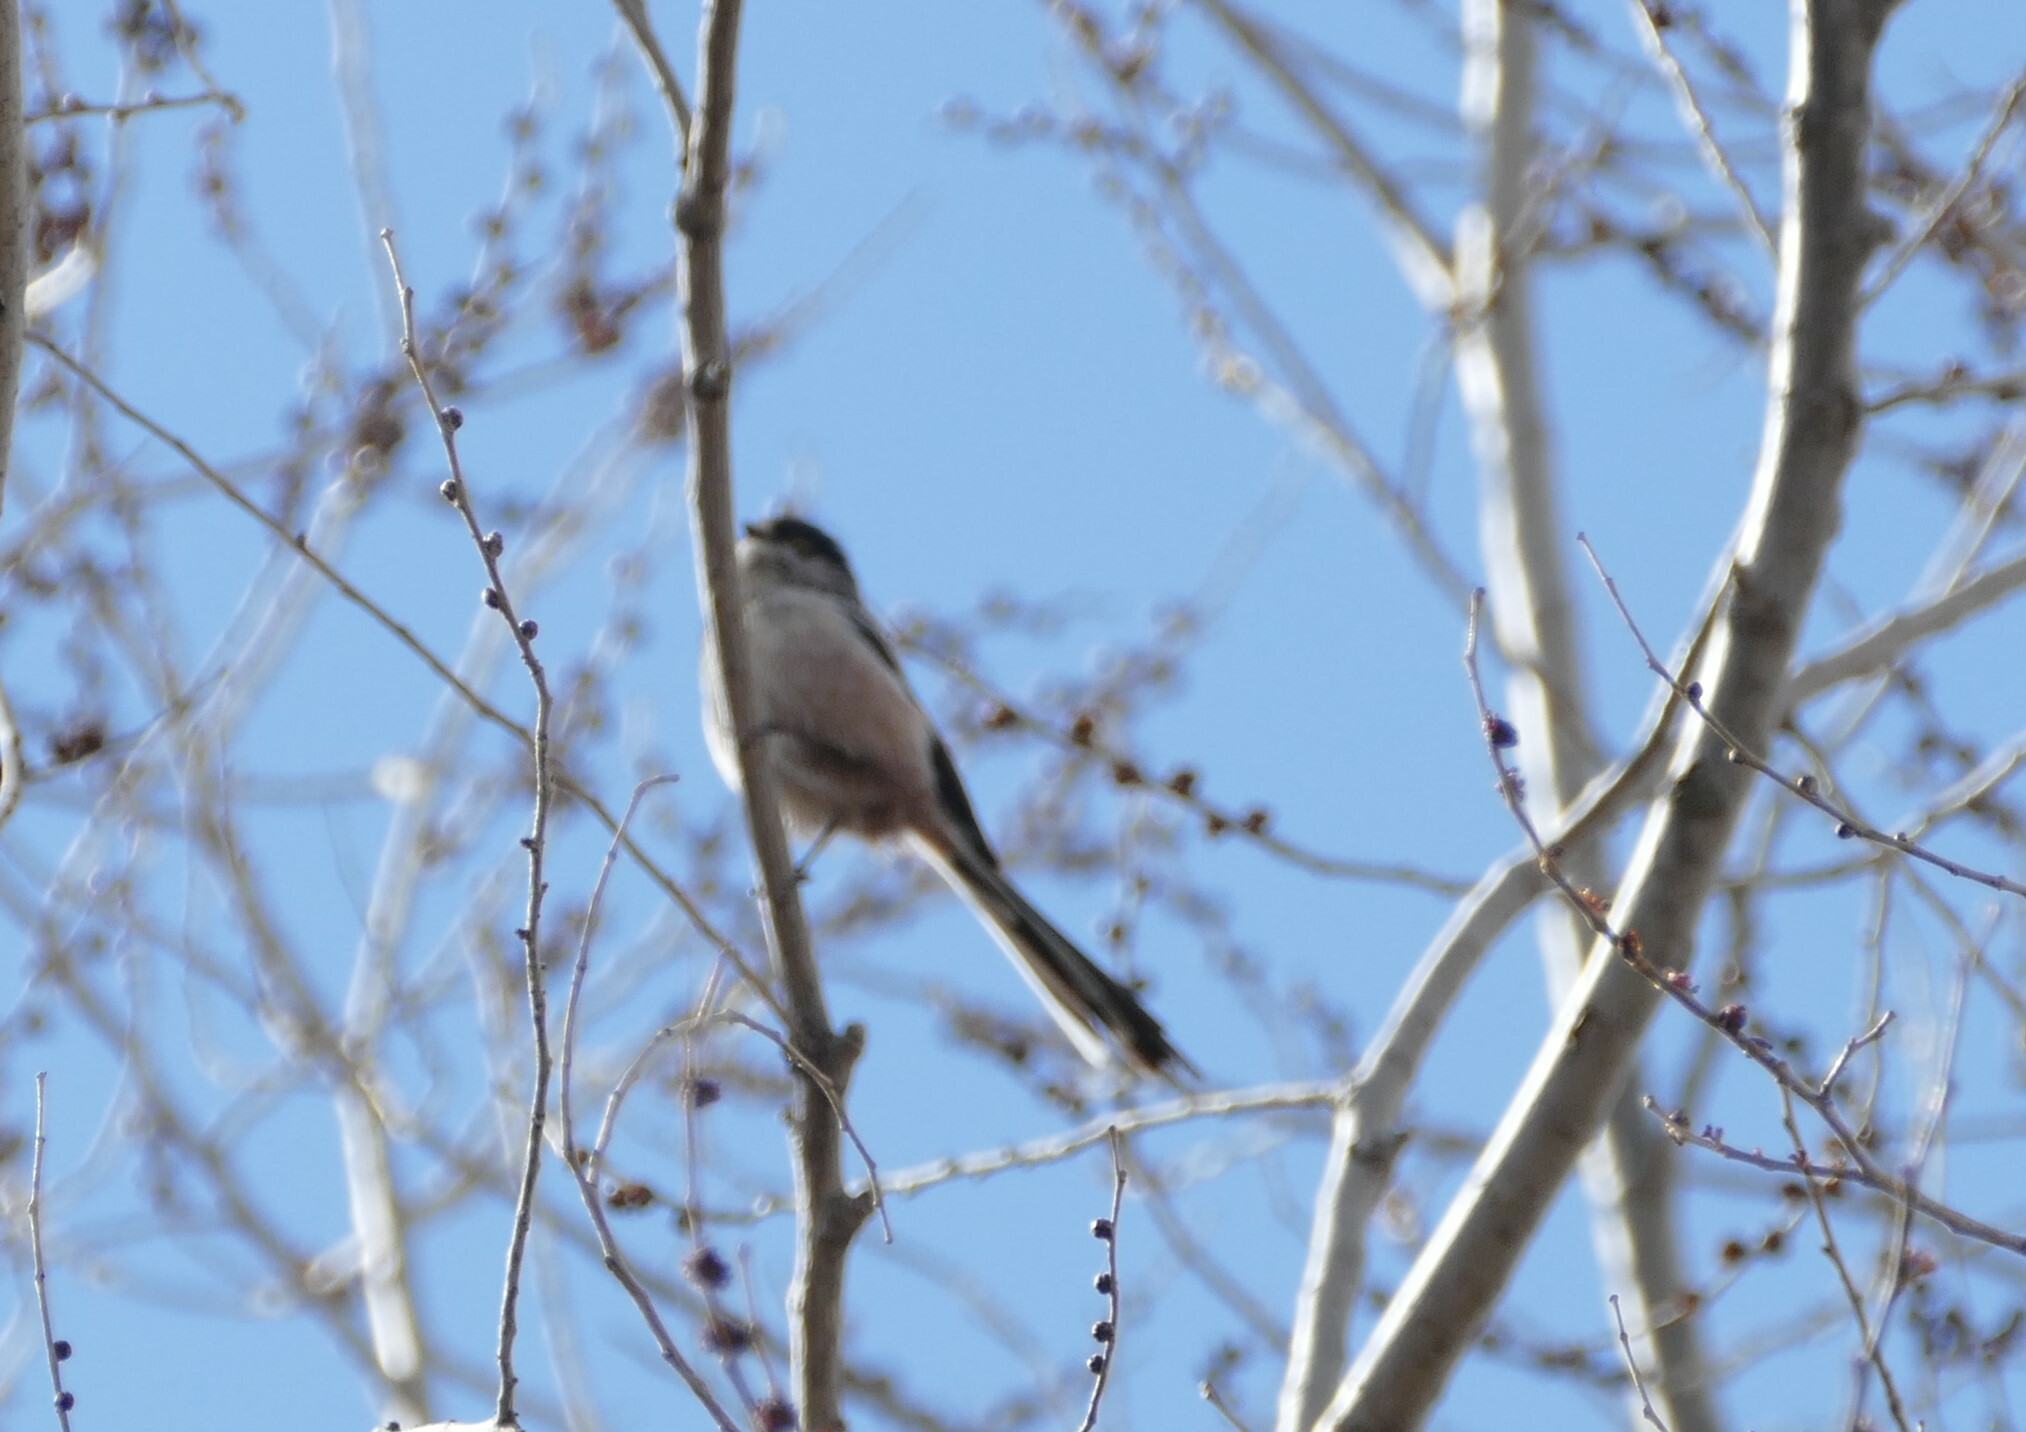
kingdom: Animalia
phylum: Chordata
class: Aves
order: Passeriformes
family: Aegithalidae
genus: Aegithalos
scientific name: Aegithalos caudatus
